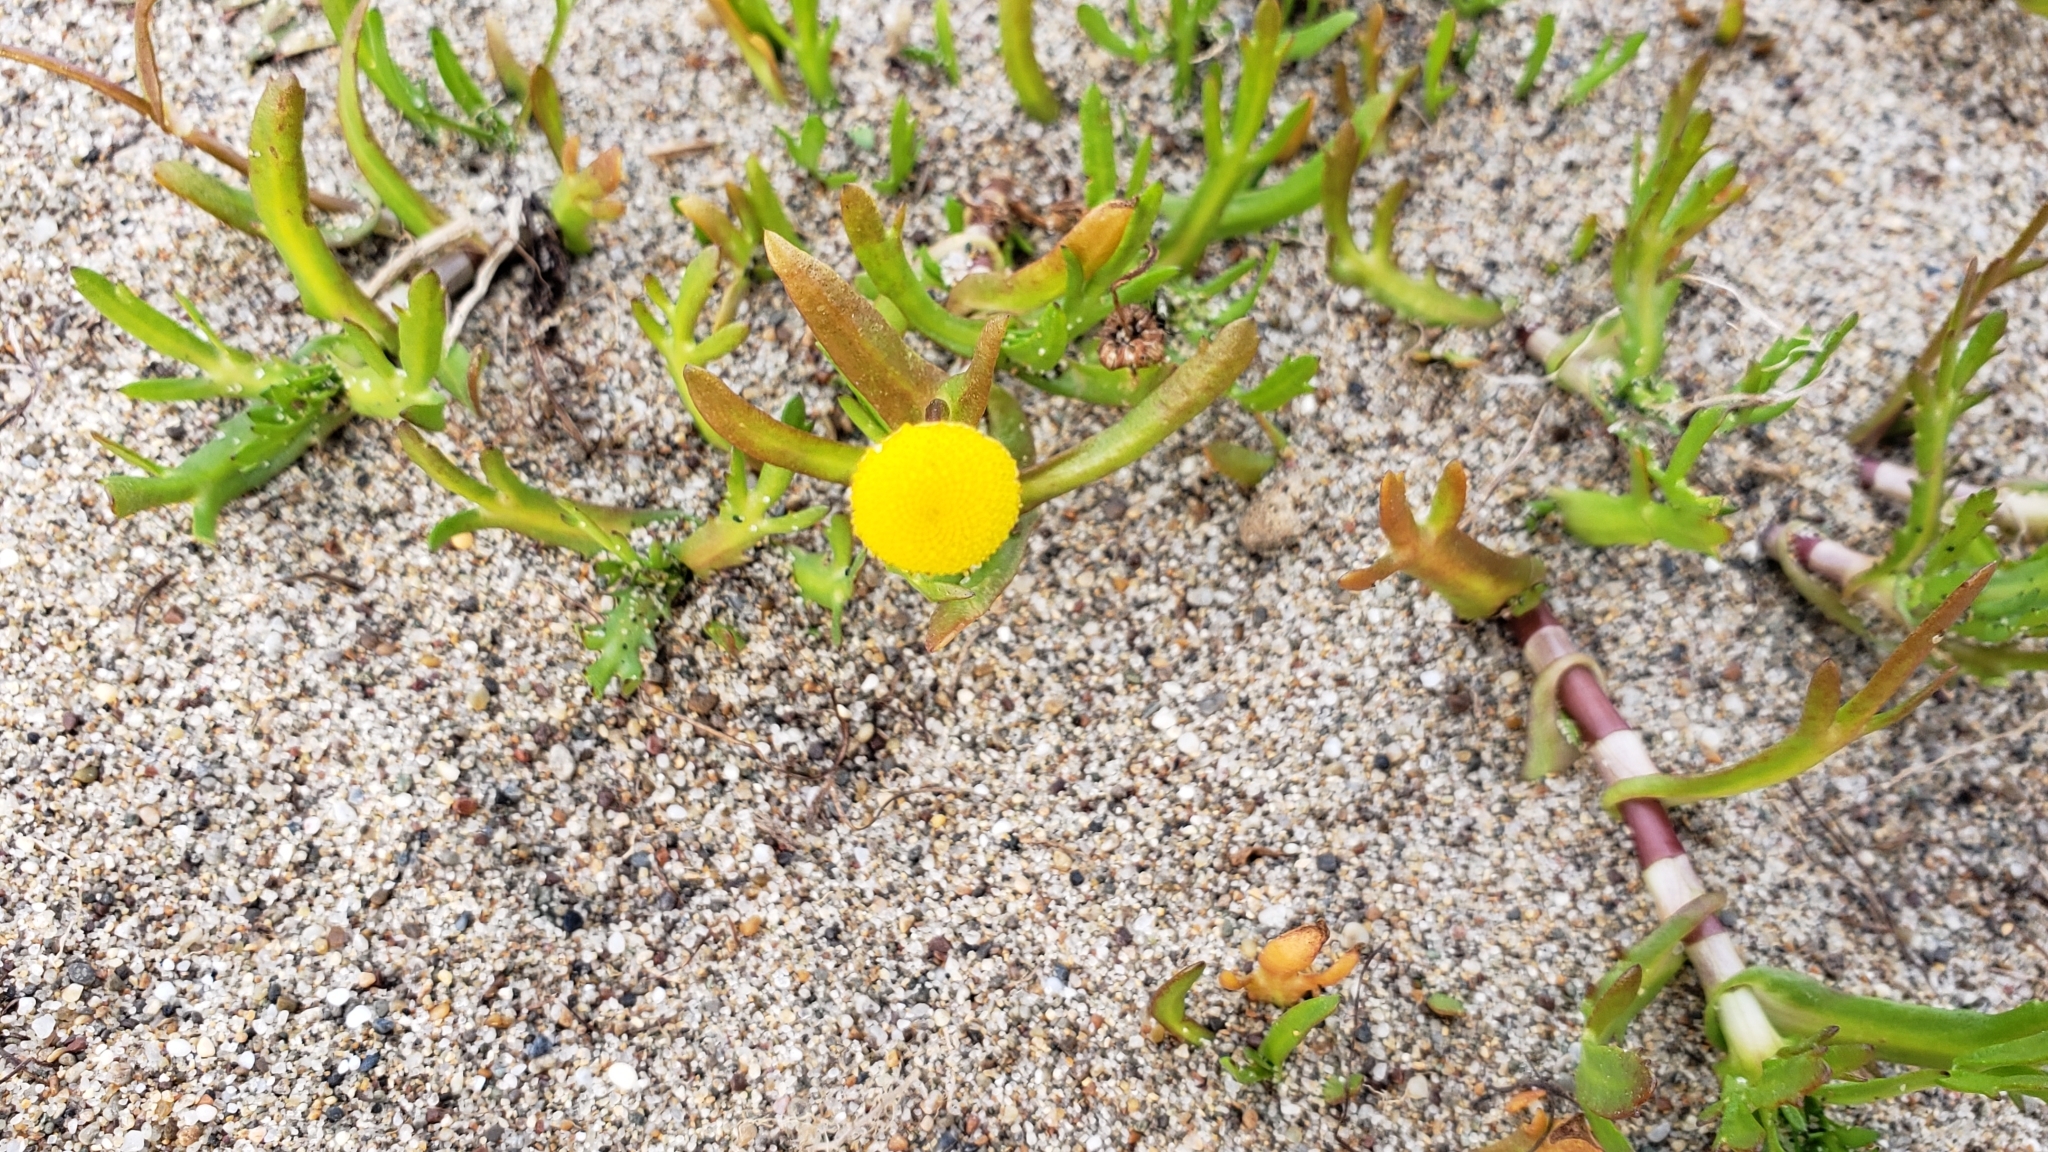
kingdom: Plantae
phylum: Tracheophyta
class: Magnoliopsida
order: Asterales
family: Asteraceae
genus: Cotula
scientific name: Cotula coronopifolia
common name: Buttonweed
